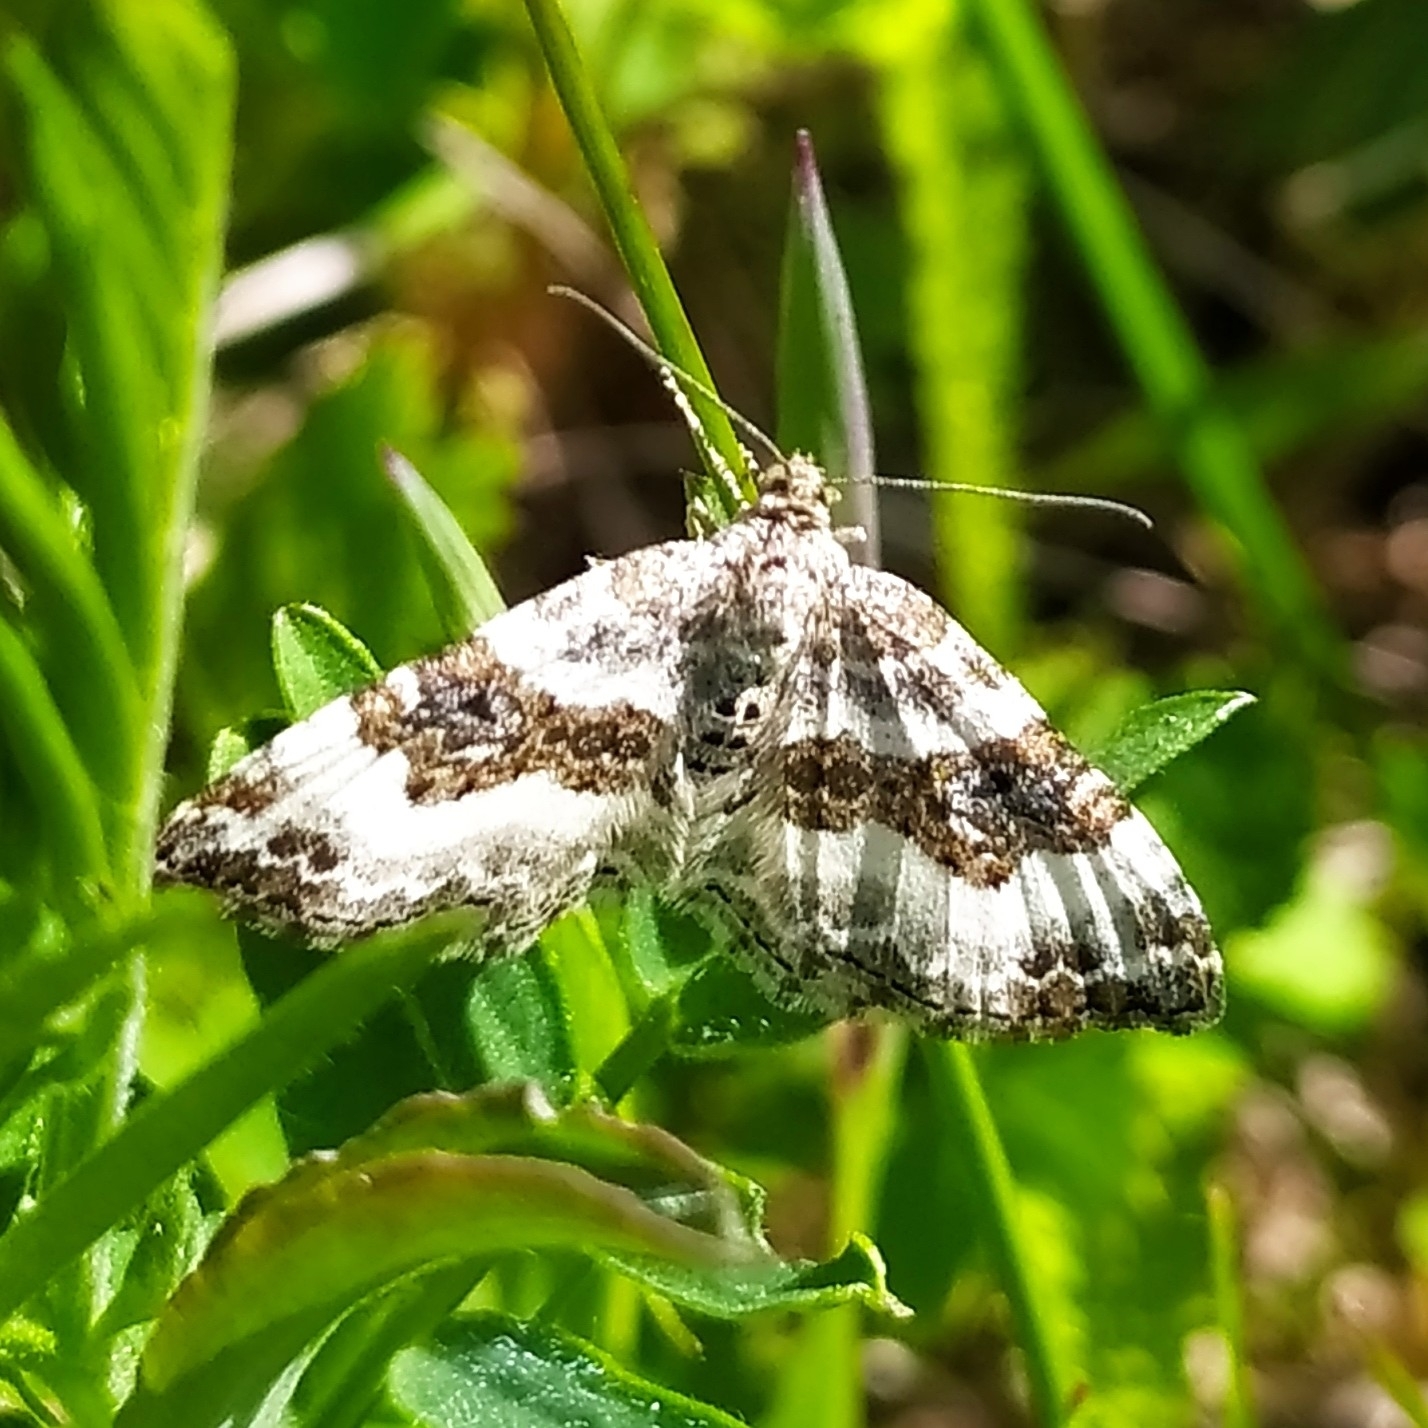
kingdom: Animalia
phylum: Arthropoda
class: Insecta
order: Lepidoptera
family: Geometridae
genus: Epirrhoe
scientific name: Epirrhoe alternata
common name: Common carpet
